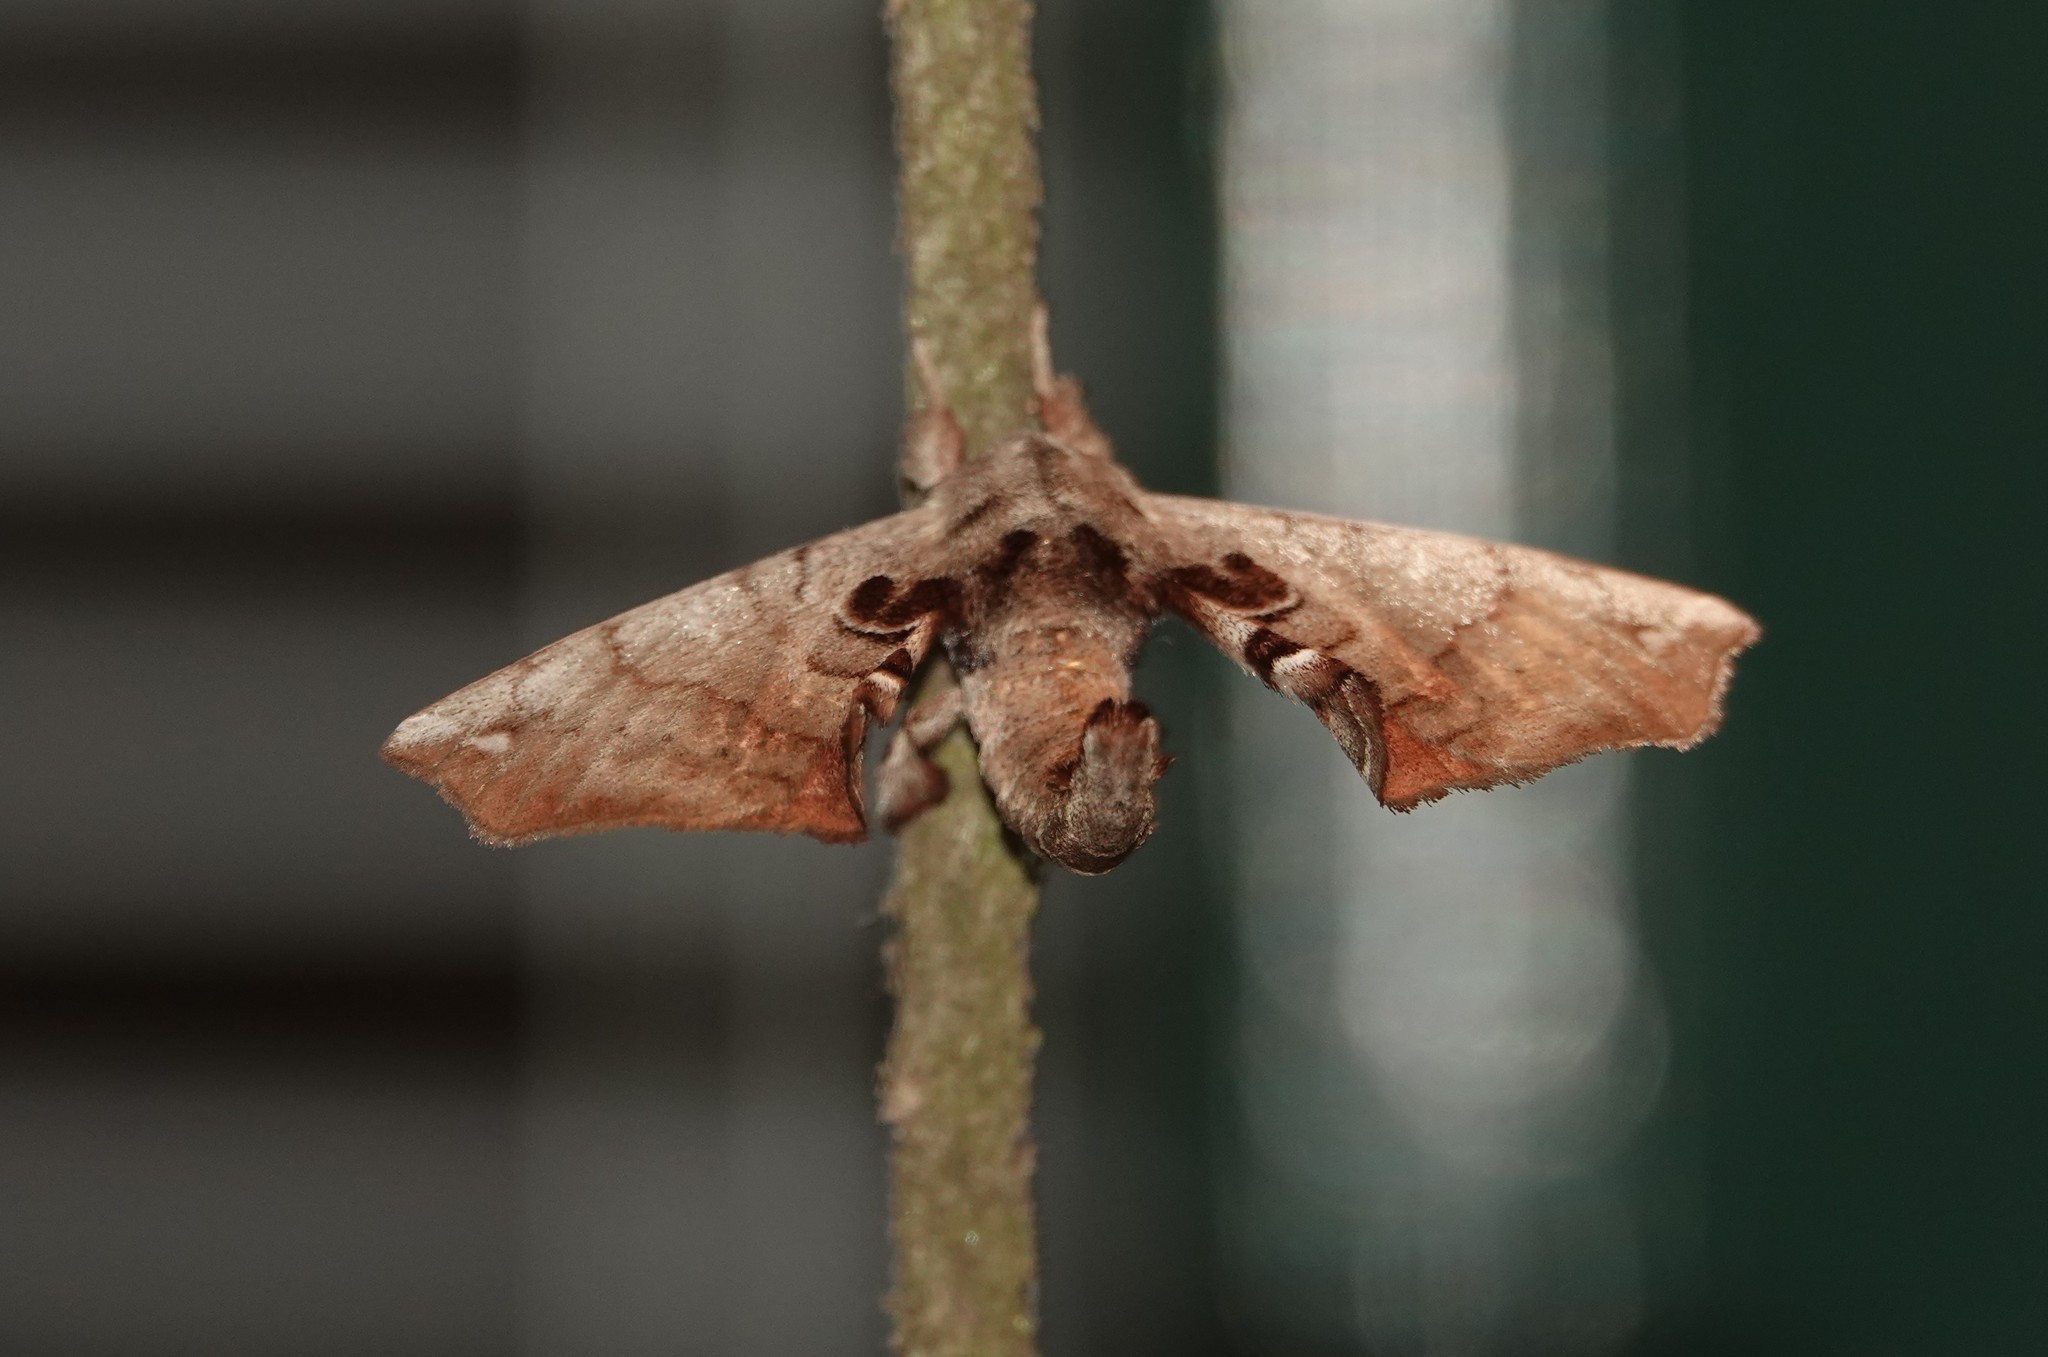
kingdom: Animalia
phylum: Arthropoda
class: Insecta
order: Lepidoptera
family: Apatelodidae
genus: Hygrochroa
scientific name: Hygrochroa Apatelodes torrefacta
